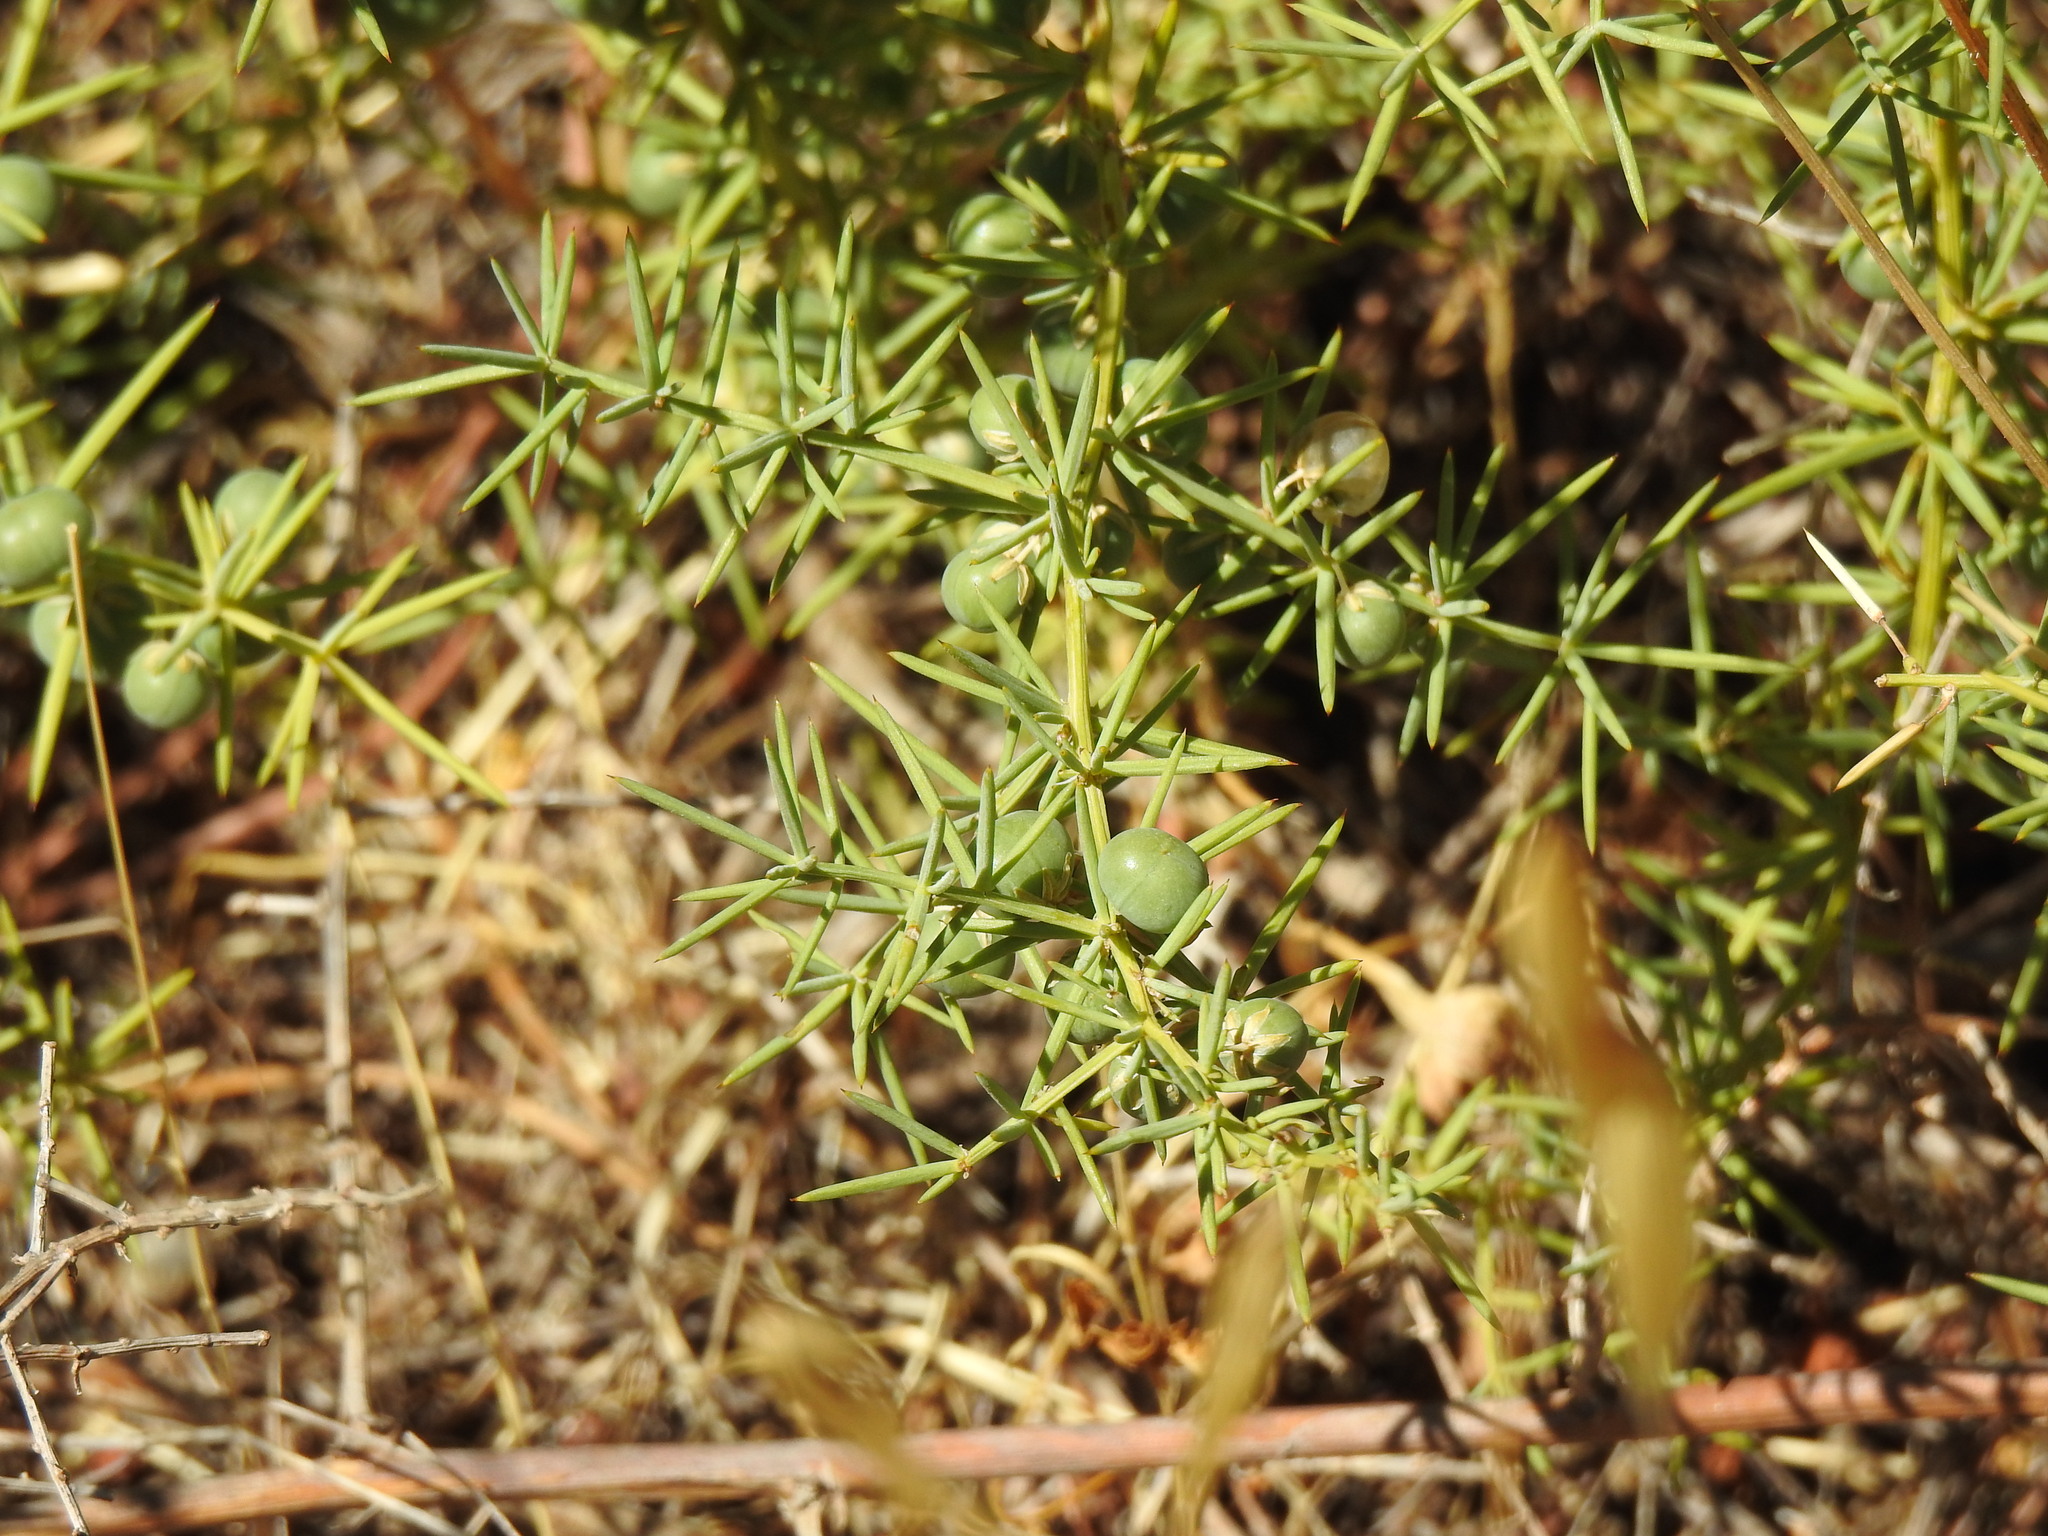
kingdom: Plantae
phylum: Tracheophyta
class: Liliopsida
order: Asparagales
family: Asparagaceae
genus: Asparagus
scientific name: Asparagus aphyllus
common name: Mediterranean asparagus
